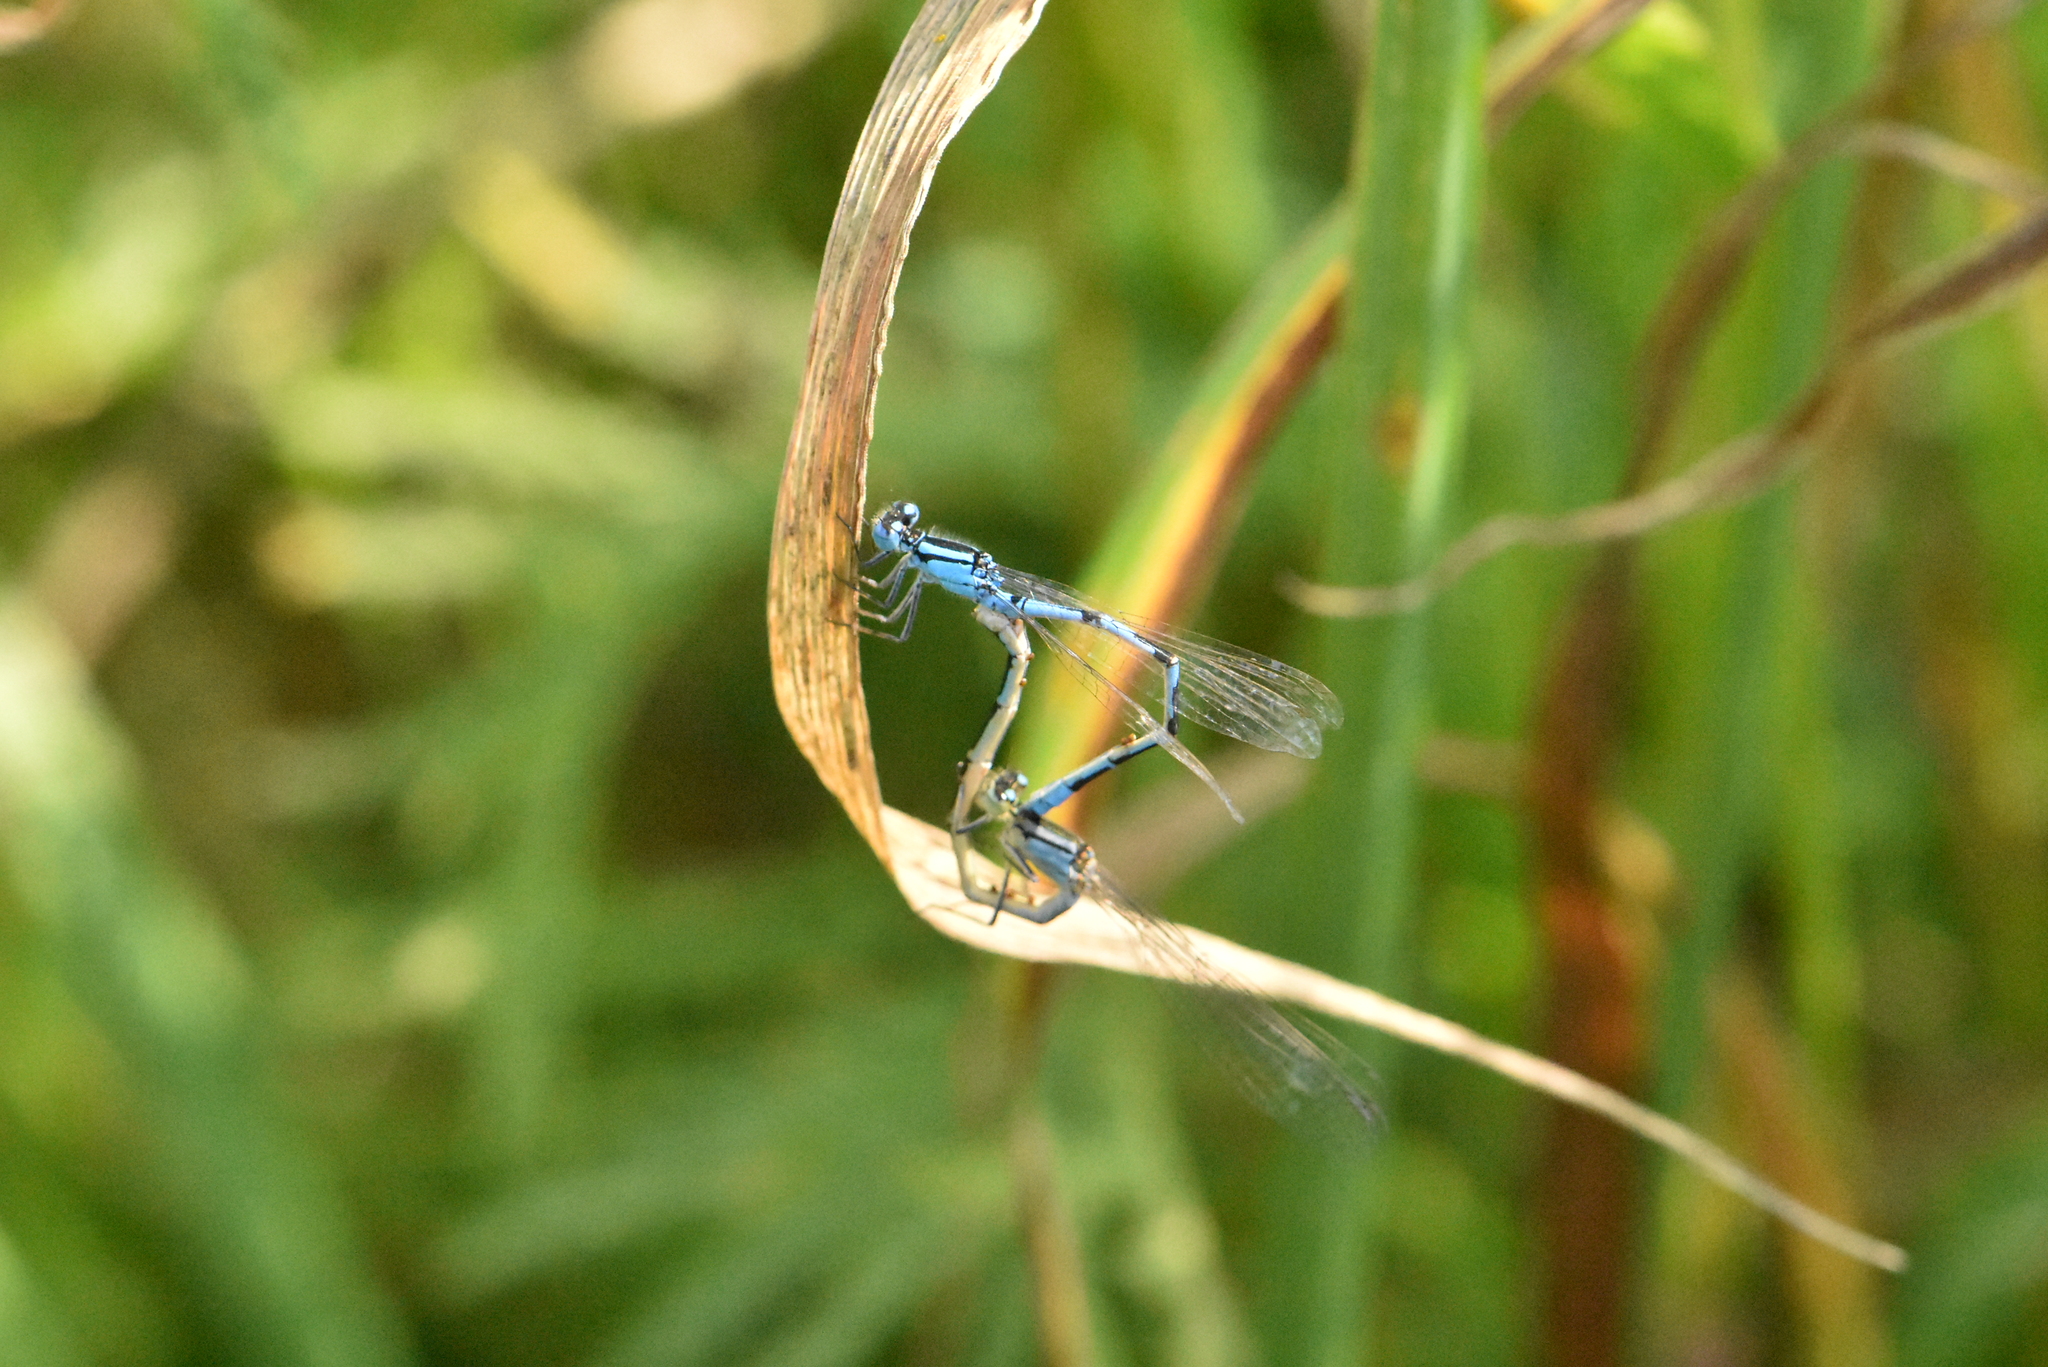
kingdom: Animalia
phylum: Arthropoda
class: Insecta
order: Odonata
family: Coenagrionidae
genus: Enallagma
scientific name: Enallagma cyathigerum
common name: Common blue damselfly
